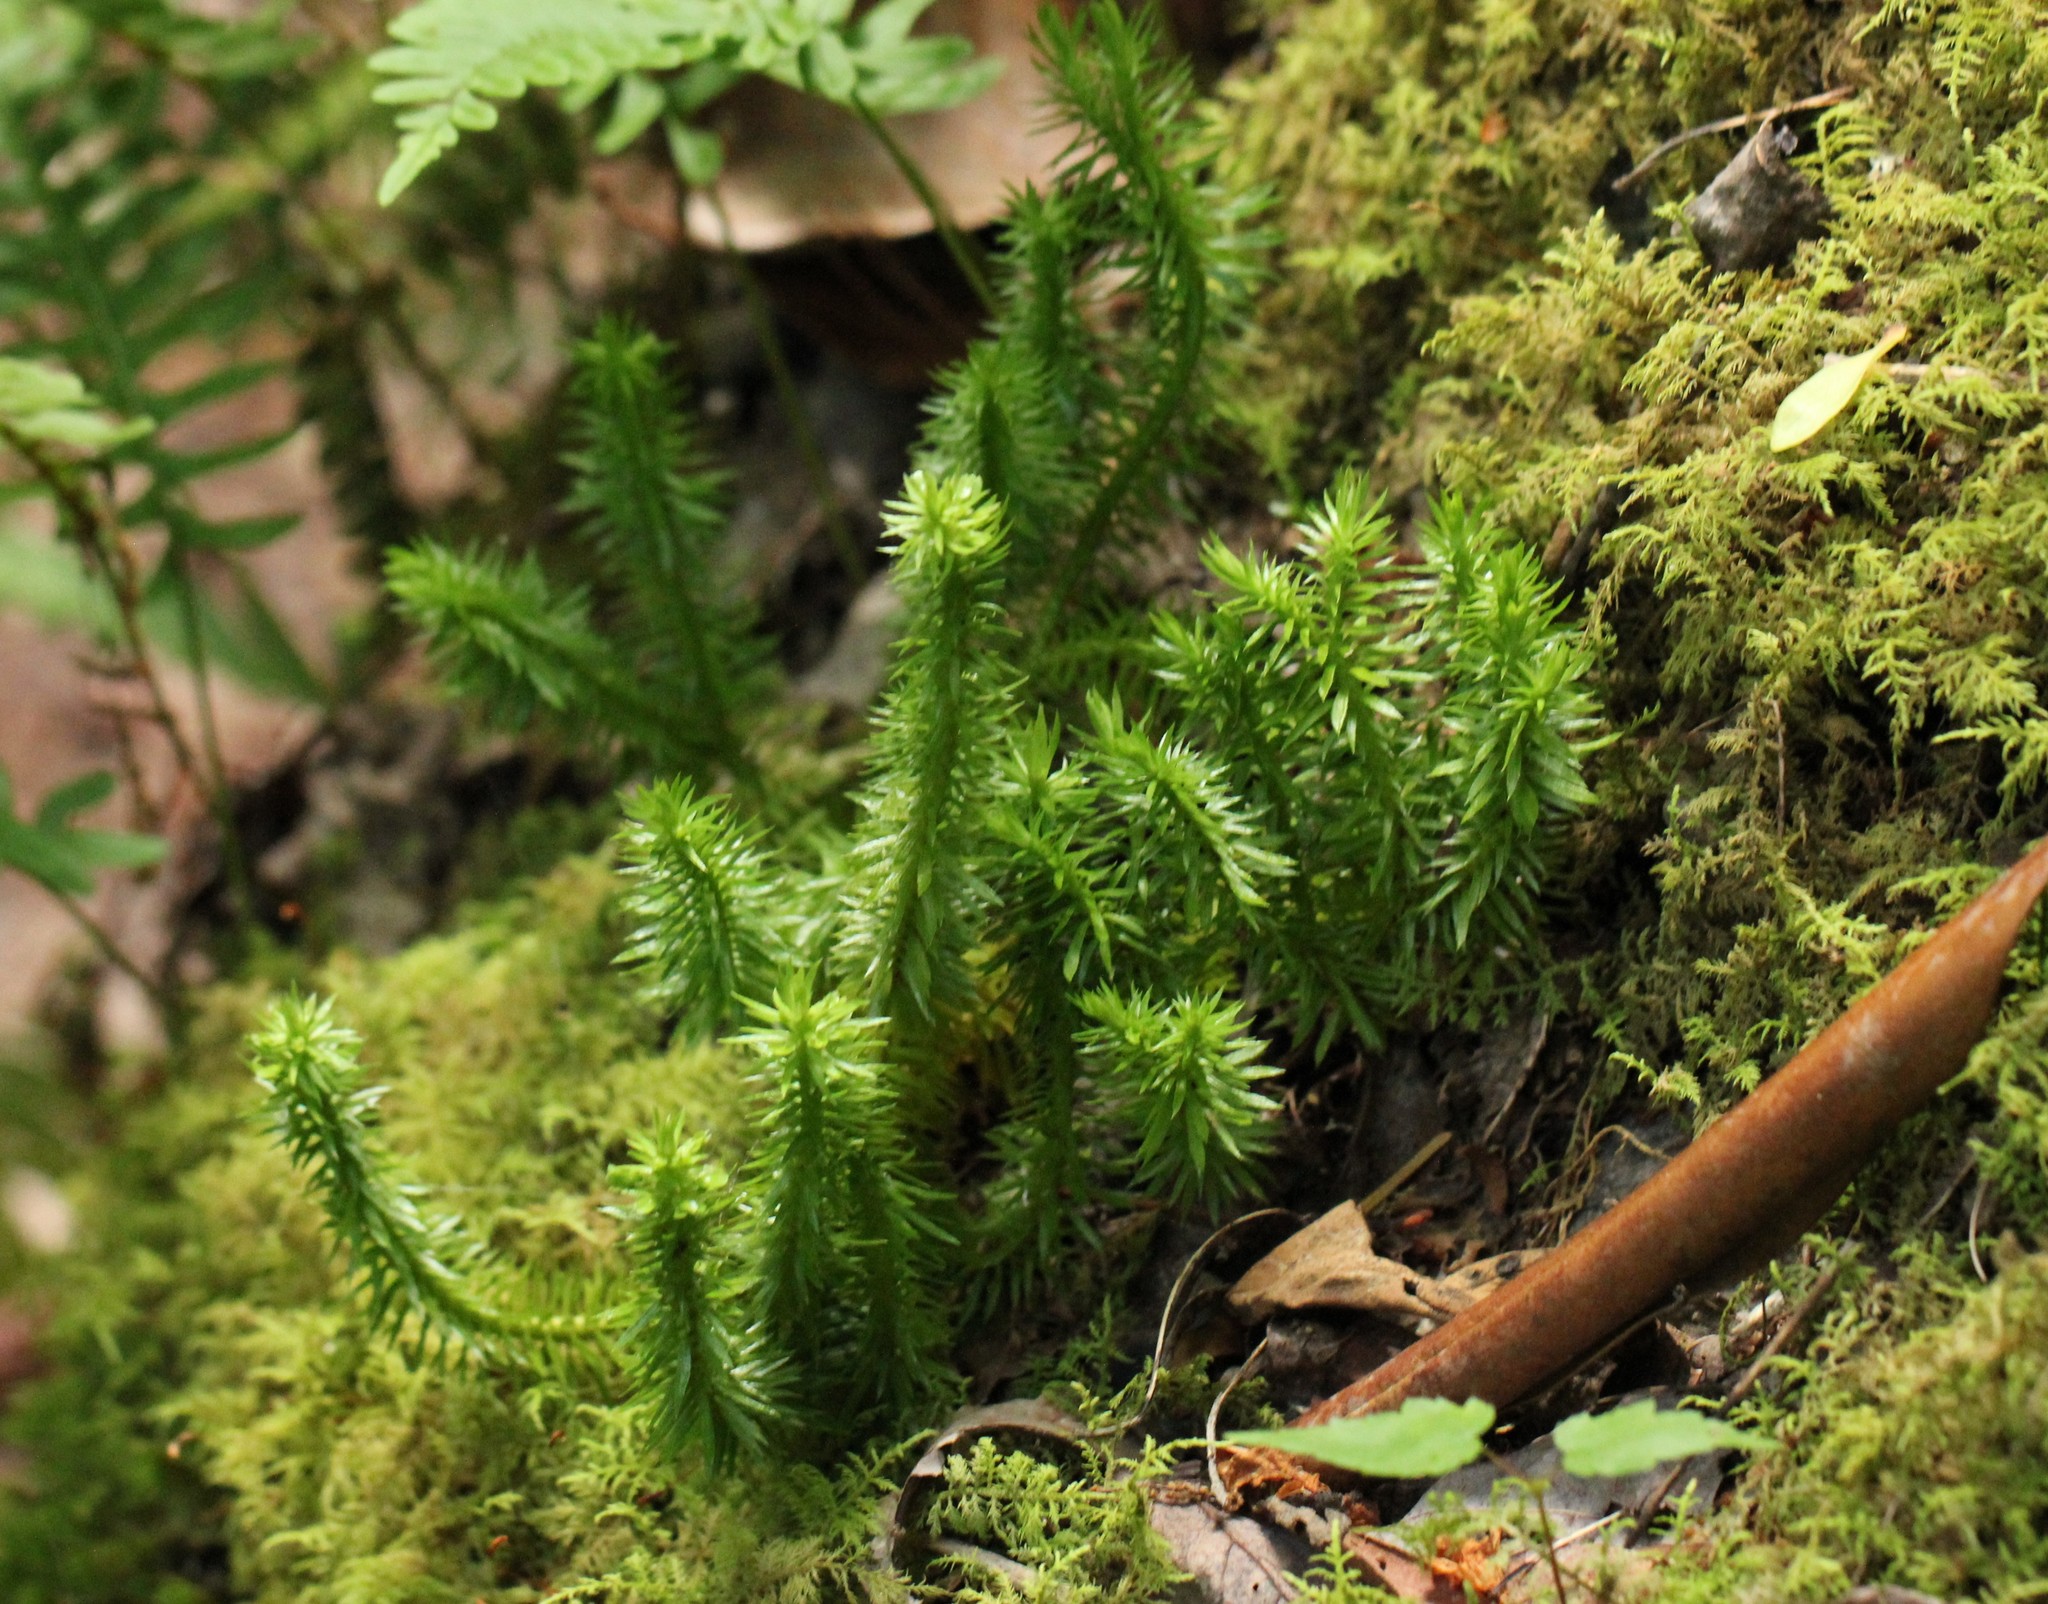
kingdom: Plantae
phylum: Tracheophyta
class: Lycopodiopsida
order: Lycopodiales
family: Lycopodiaceae
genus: Huperzia
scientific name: Huperzia lucidula
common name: Shining clubmoss
